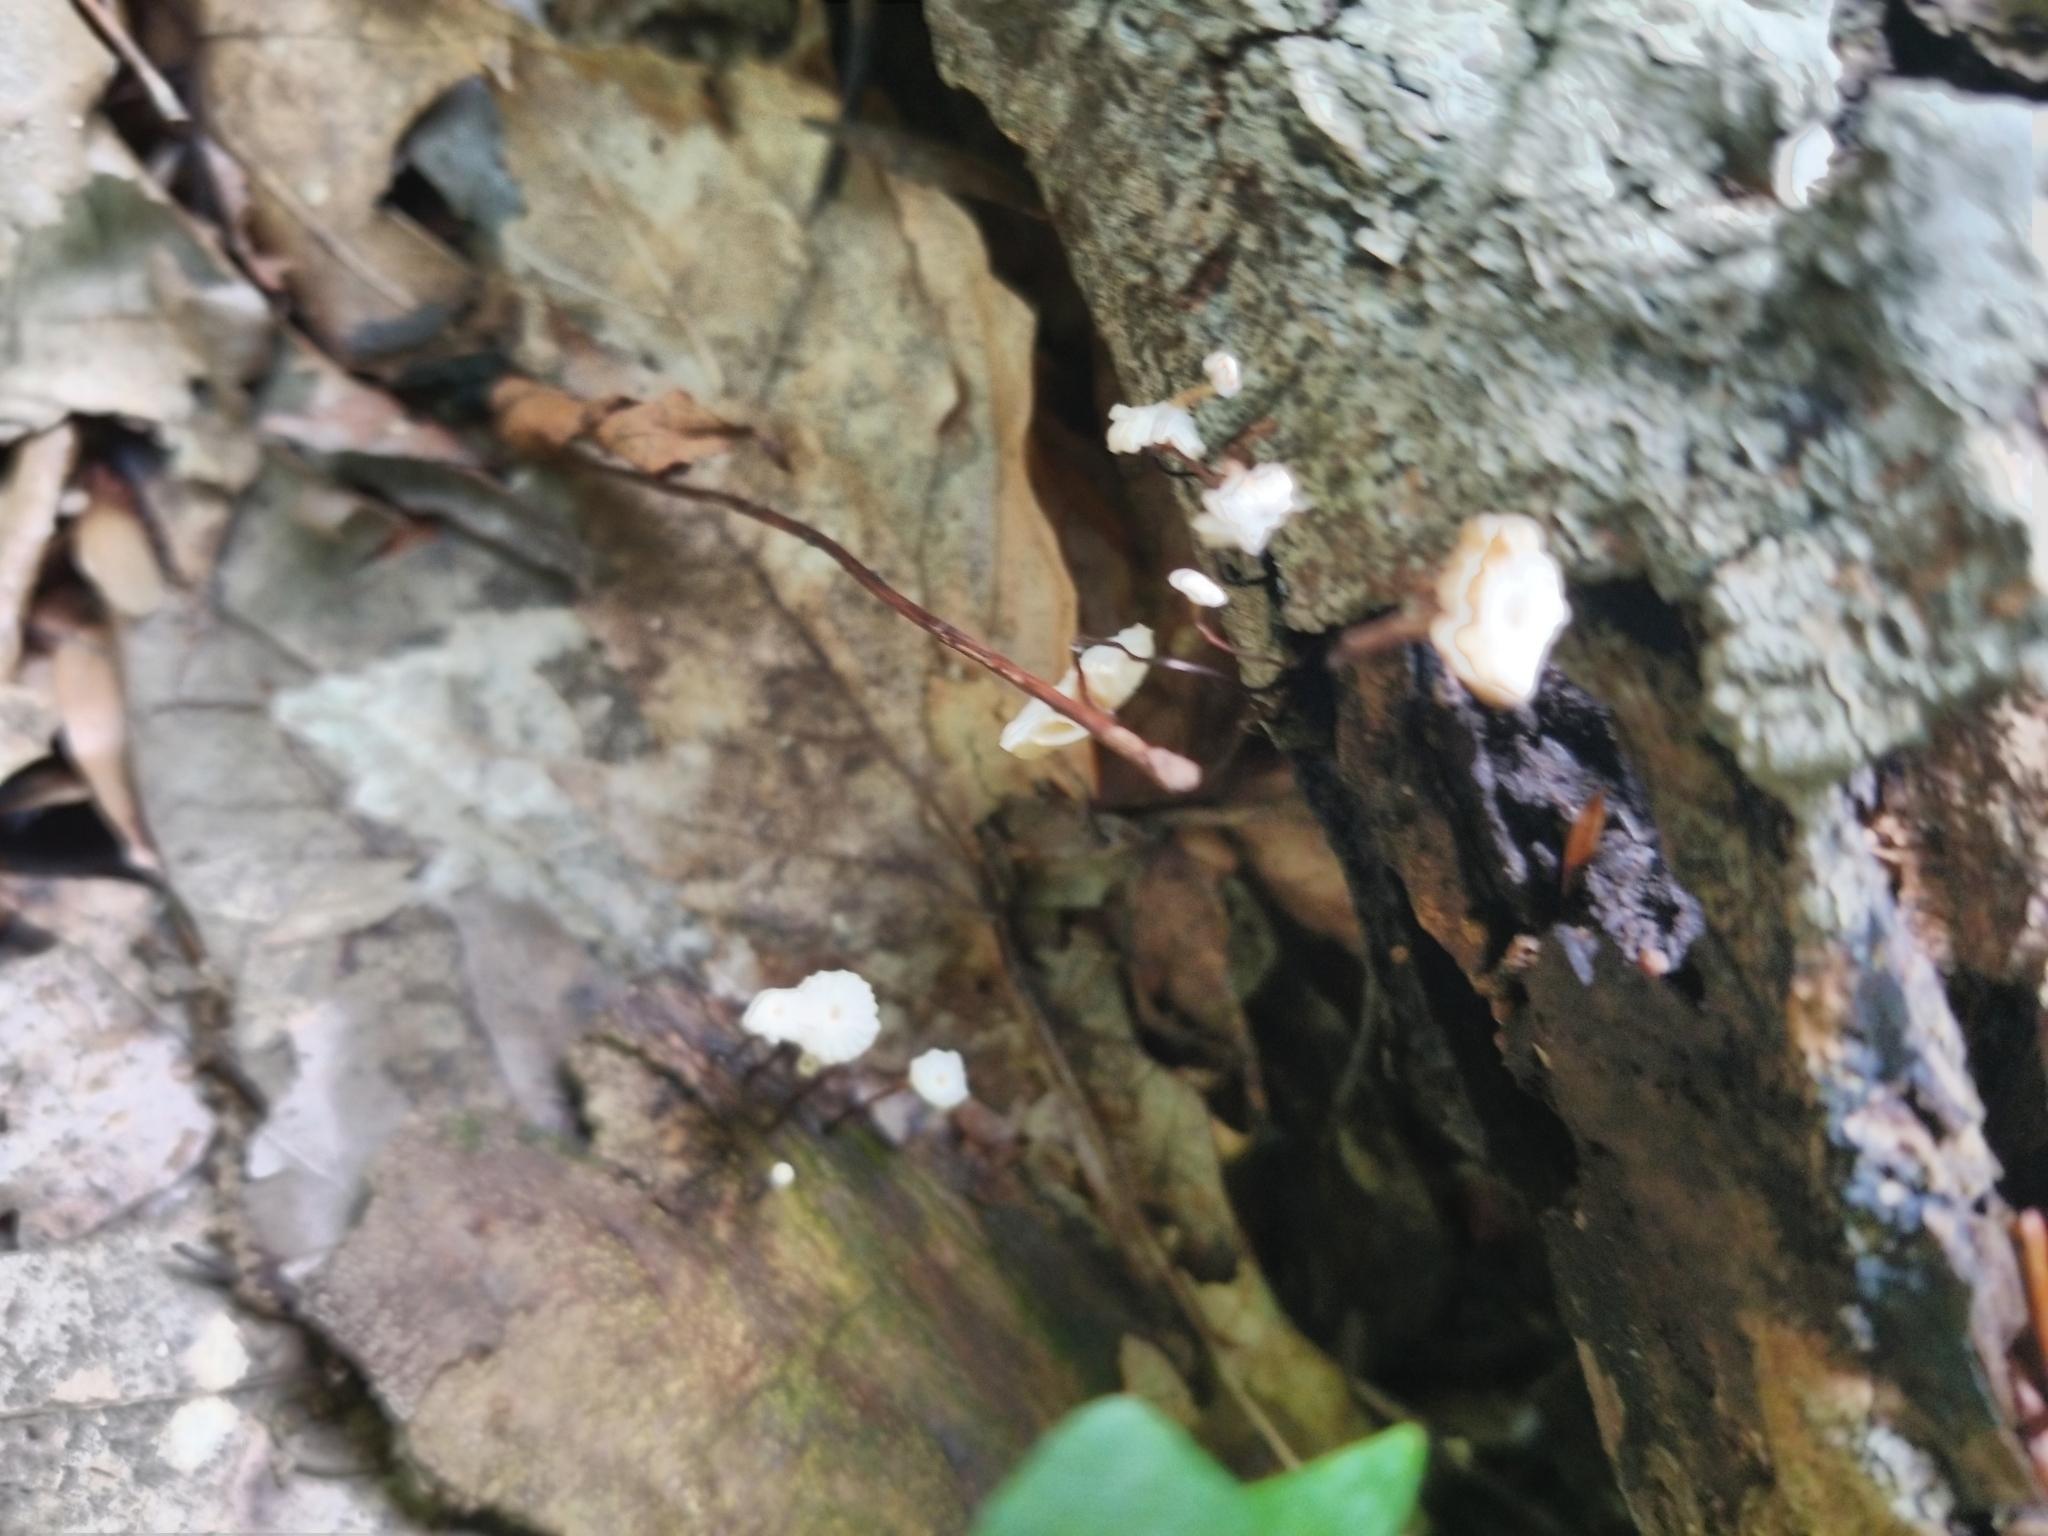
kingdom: Fungi
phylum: Basidiomycota
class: Agaricomycetes
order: Agaricales
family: Marasmiaceae
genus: Marasmius
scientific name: Marasmius rotula
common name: Collared parachute
